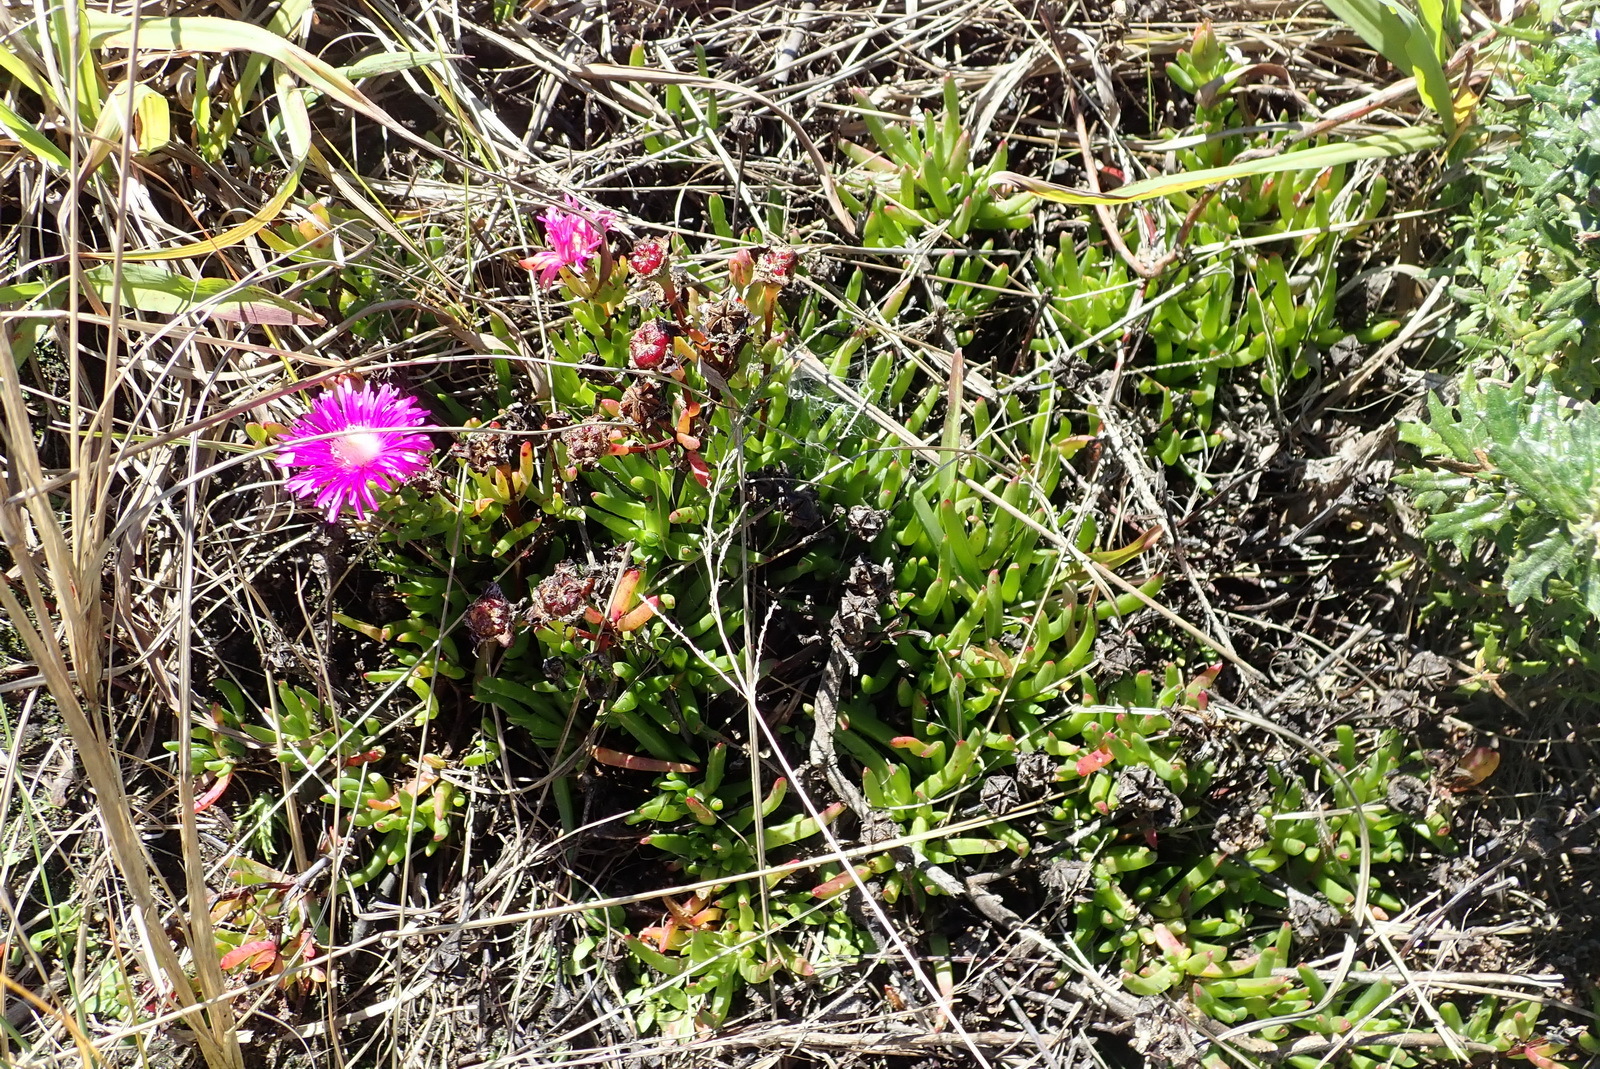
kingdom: Plantae
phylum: Tracheophyta
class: Magnoliopsida
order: Caryophyllales
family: Aizoaceae
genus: Ruschia
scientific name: Ruschia duthiae
